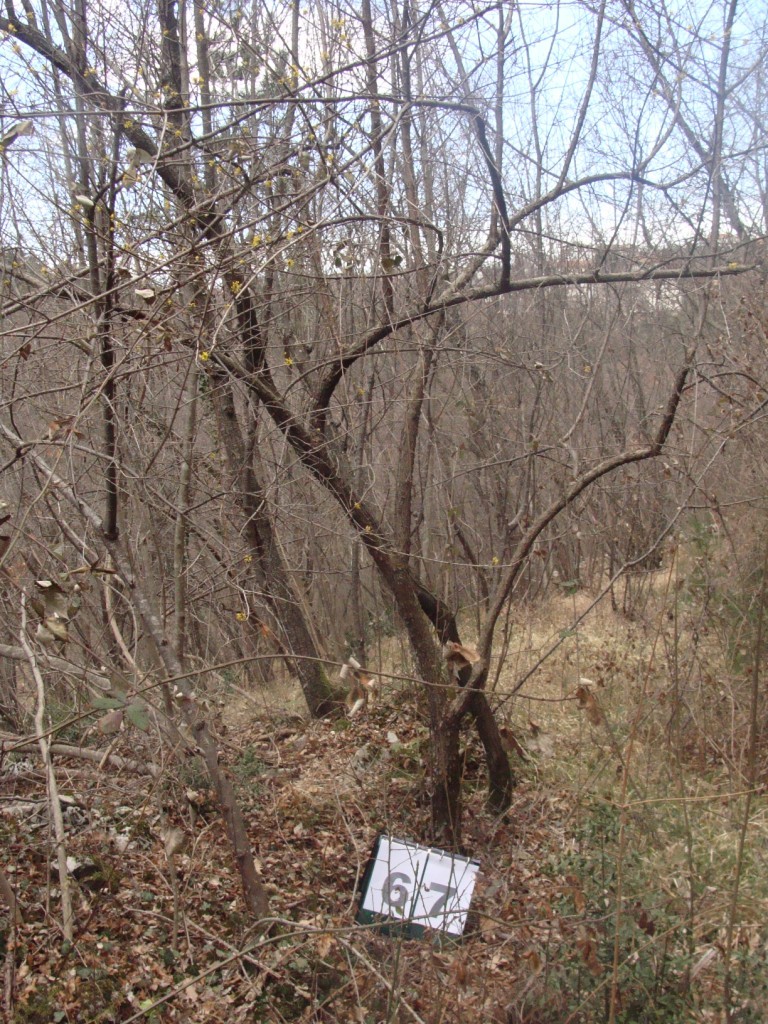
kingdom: Plantae
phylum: Tracheophyta
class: Magnoliopsida
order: Cornales
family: Cornaceae
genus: Cornus
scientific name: Cornus mas
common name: Cornelian-cherry
